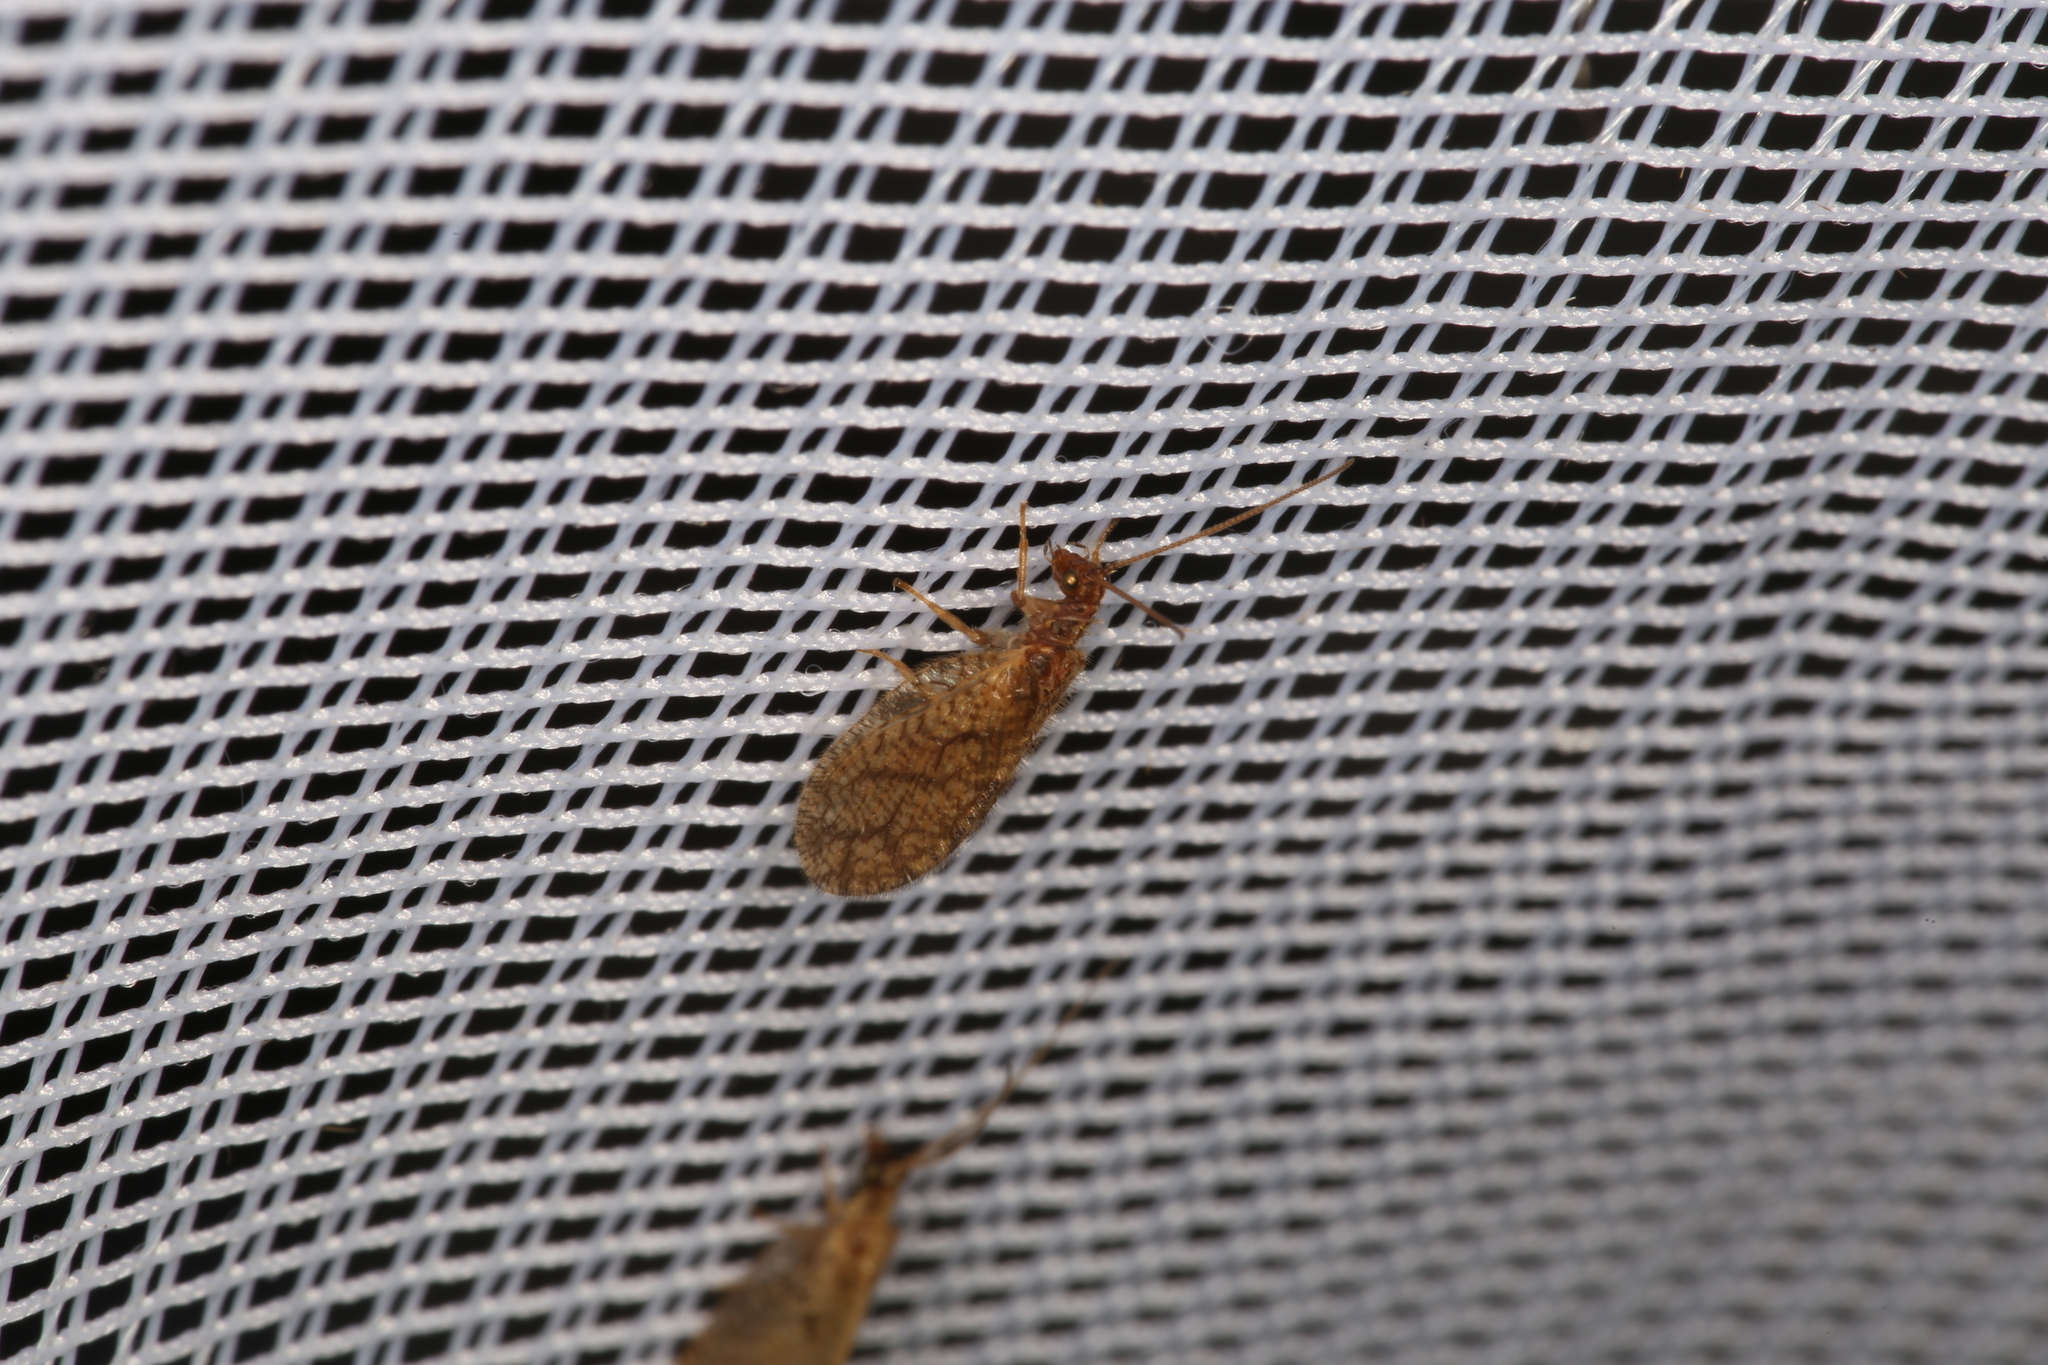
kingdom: Animalia
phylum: Arthropoda
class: Insecta
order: Neuroptera
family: Hemerobiidae
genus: Micromus
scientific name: Micromus angulatus
